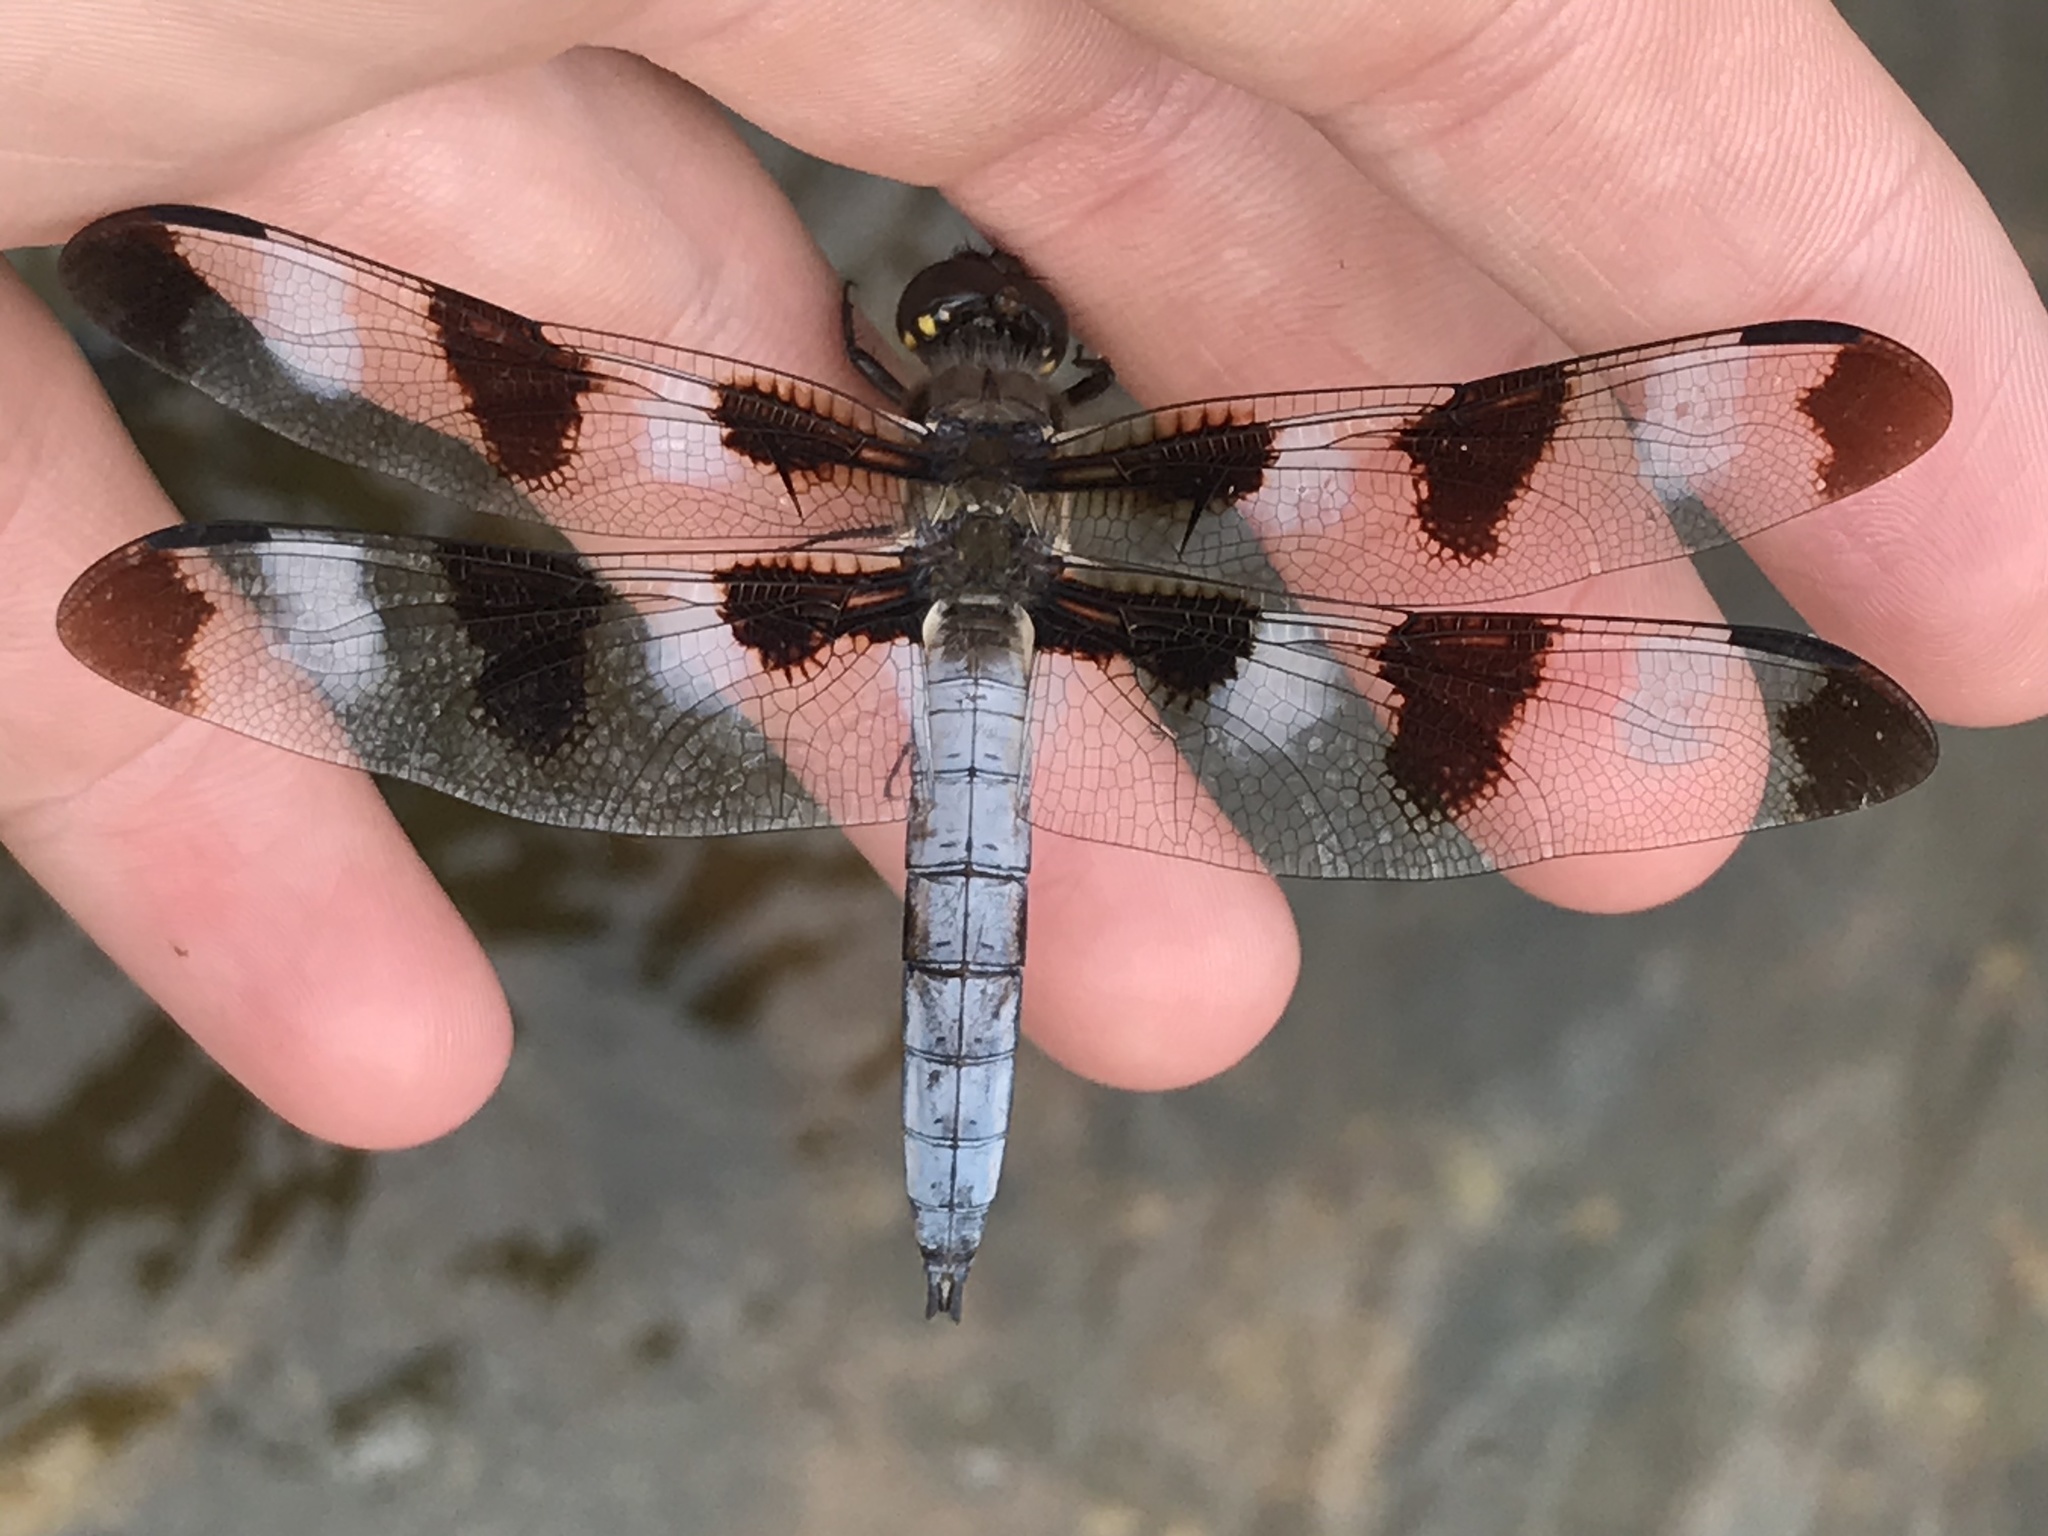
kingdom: Animalia
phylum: Arthropoda
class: Insecta
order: Odonata
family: Libellulidae
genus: Libellula
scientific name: Libellula pulchella
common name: Twelve-spotted skimmer
